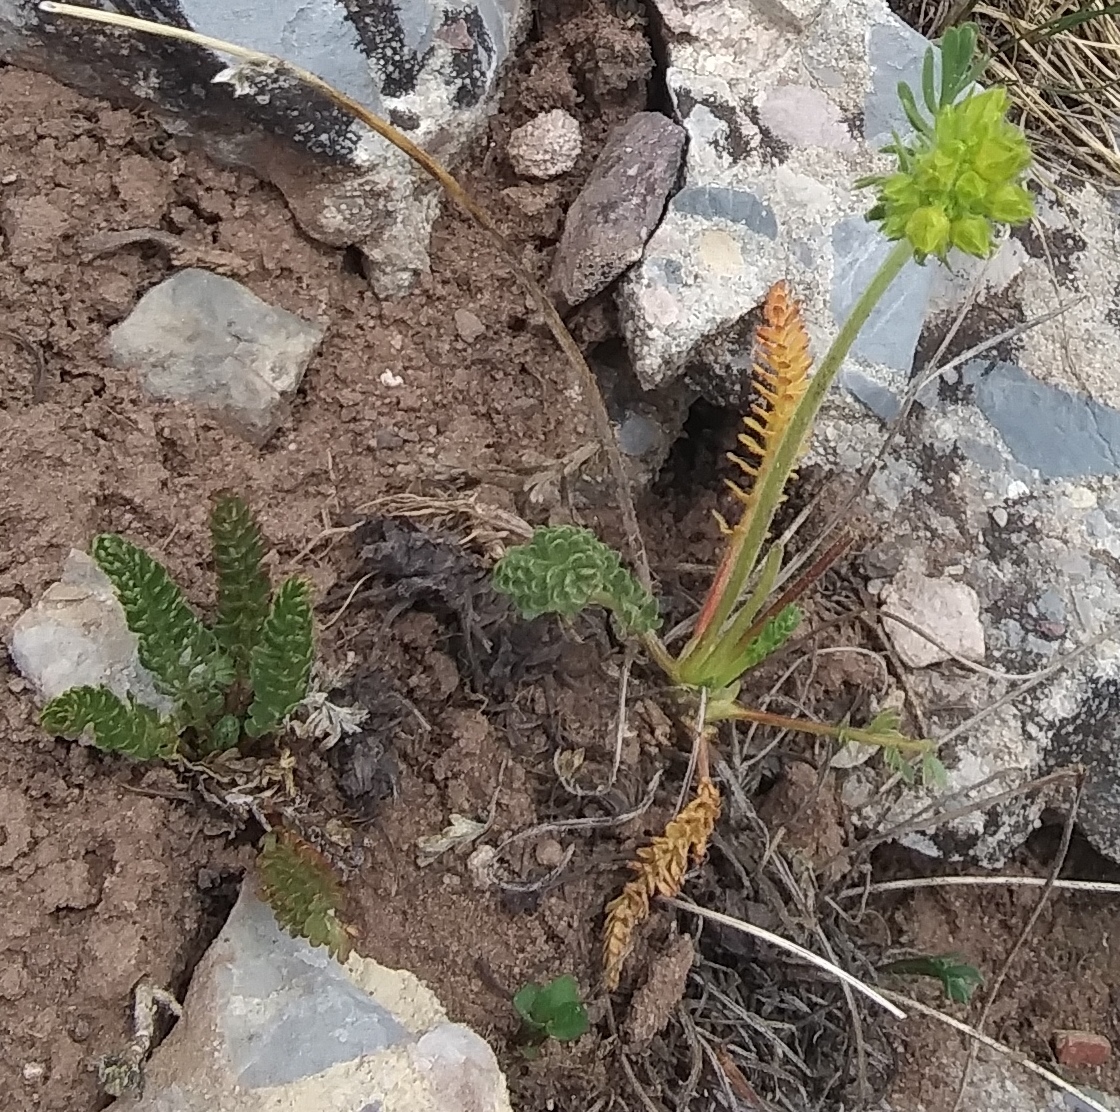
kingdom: Plantae
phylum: Tracheophyta
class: Magnoliopsida
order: Rosales
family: Rosaceae
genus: Potentilla
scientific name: Potentilla gordonii
